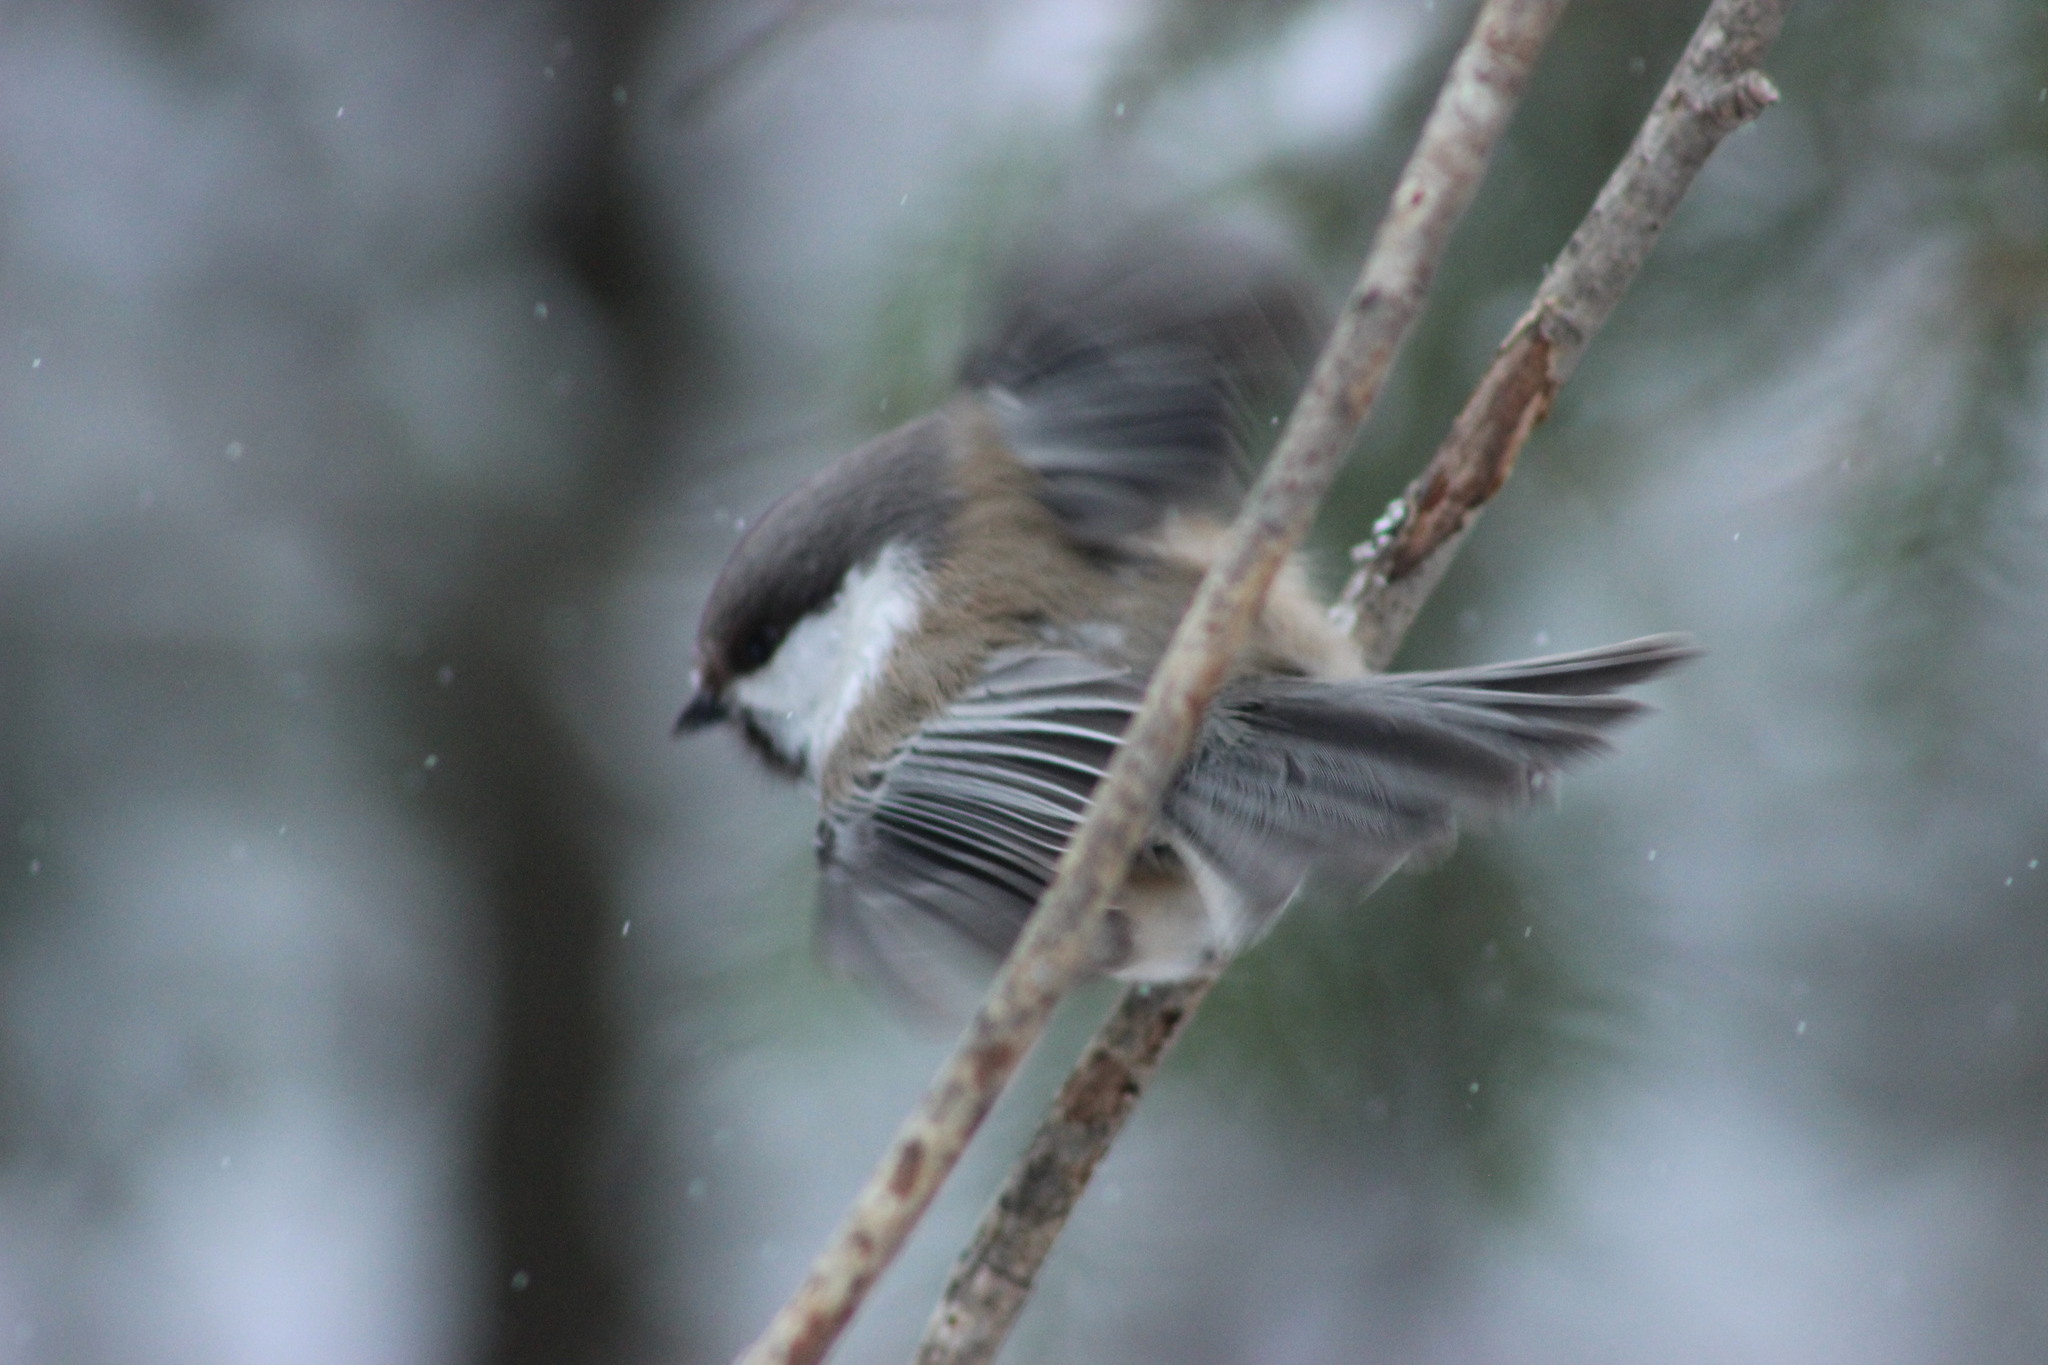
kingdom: Animalia
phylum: Chordata
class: Aves
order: Passeriformes
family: Paridae
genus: Poecile
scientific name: Poecile cinctus
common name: Gray-headed chickadee
